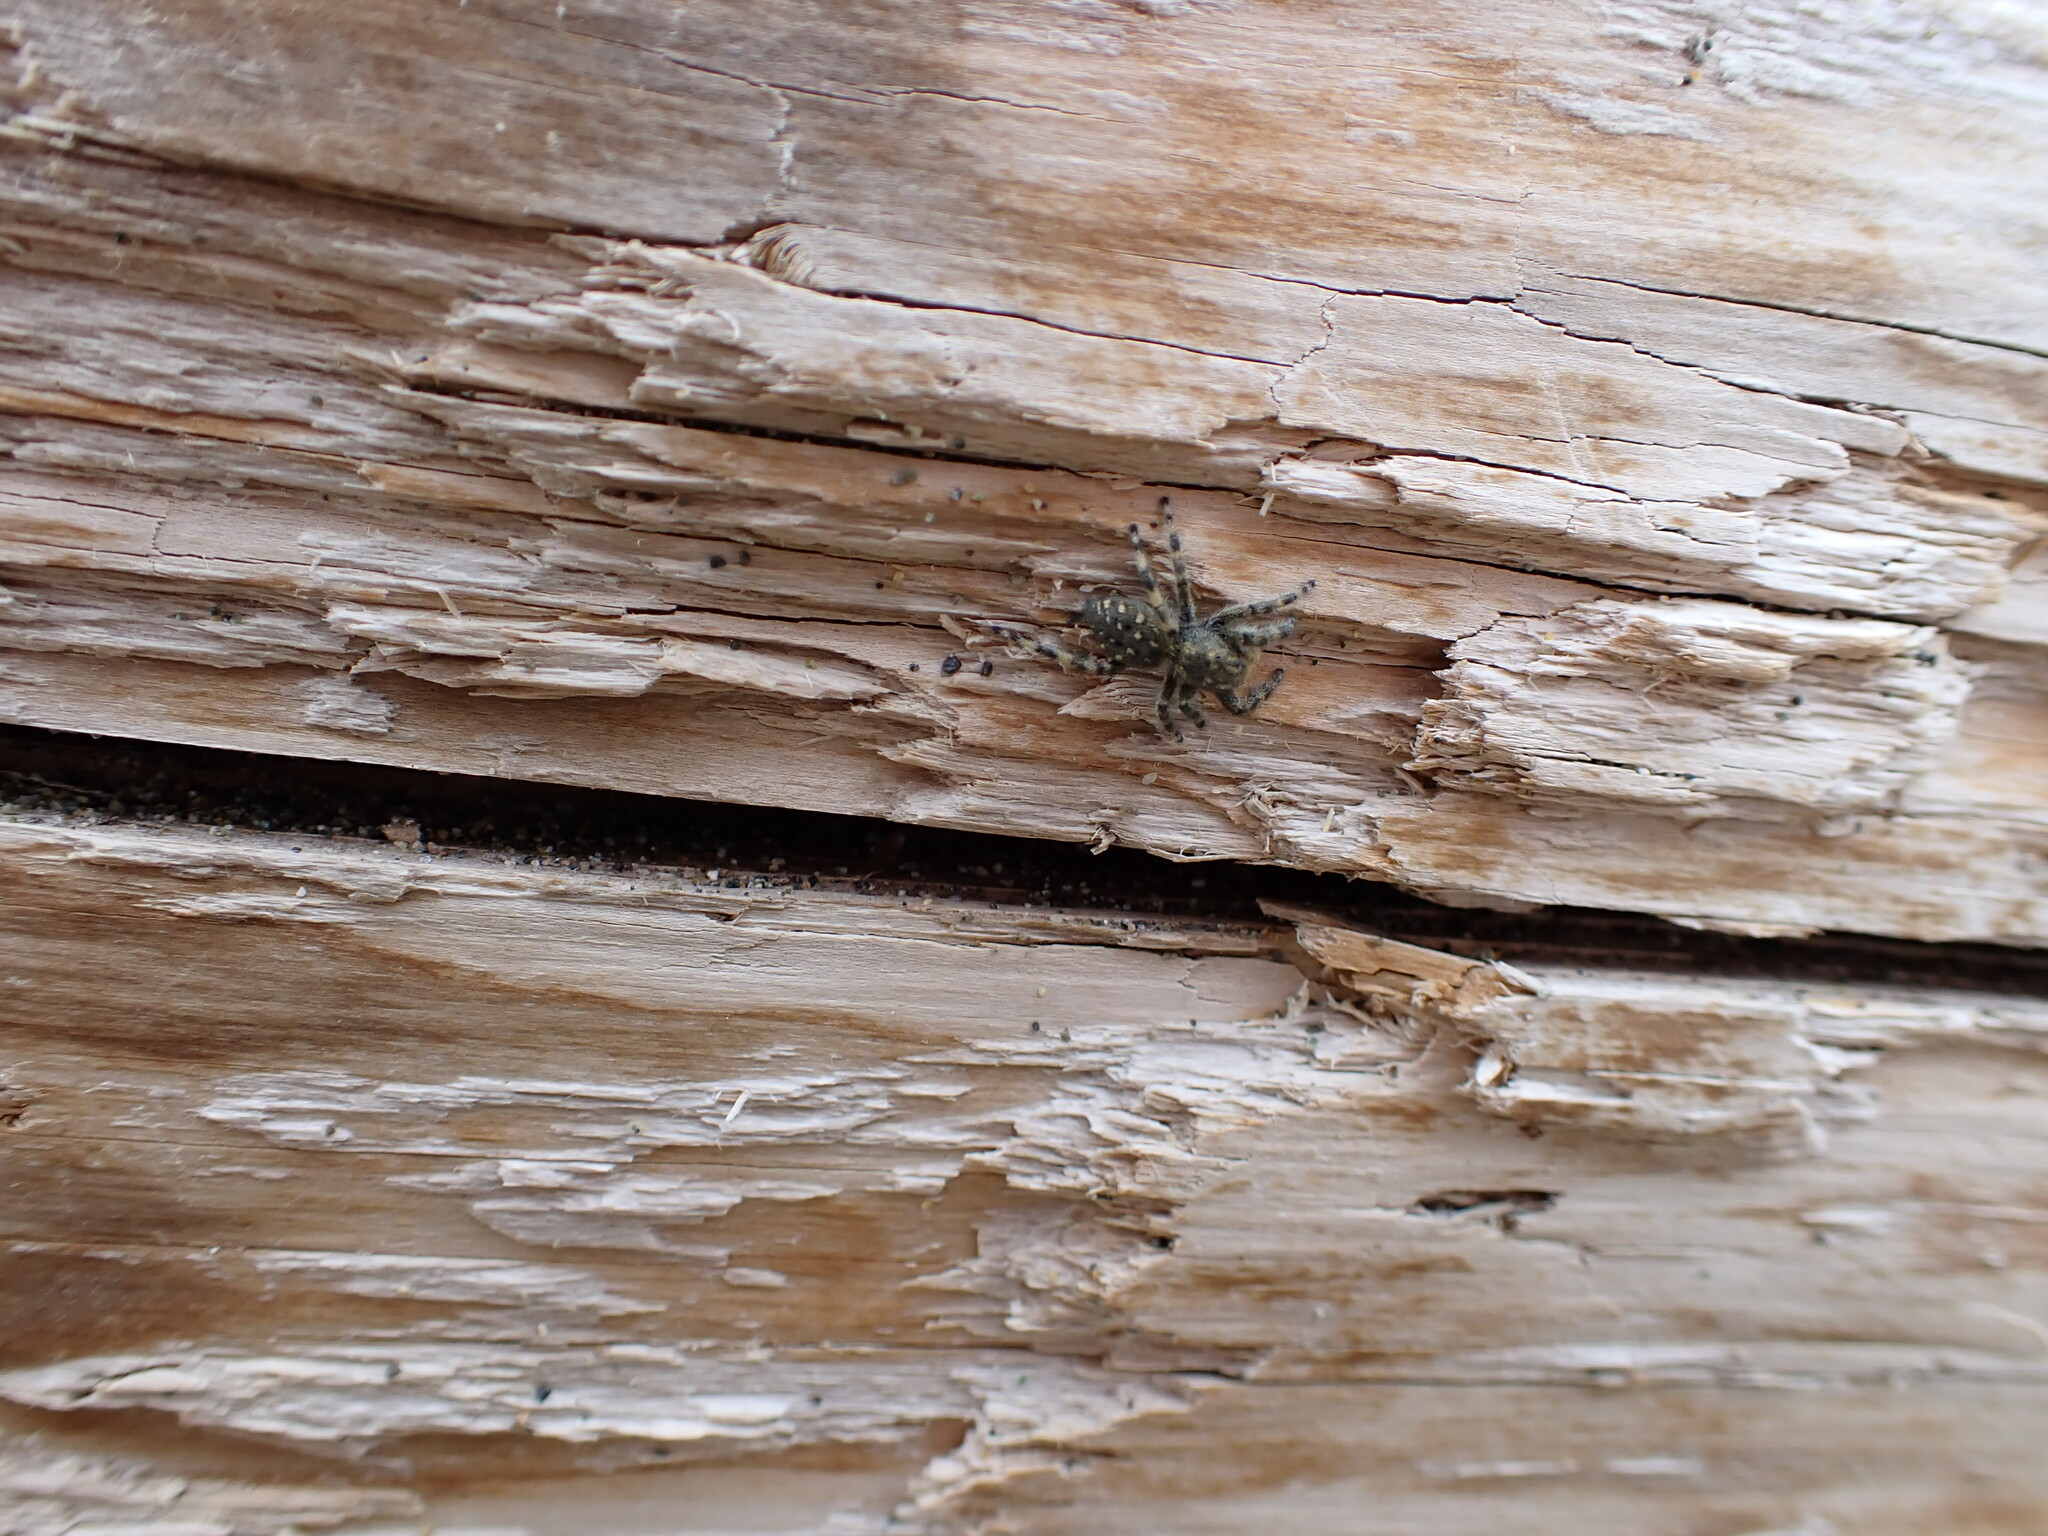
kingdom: Animalia
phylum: Arthropoda
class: Arachnida
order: Araneae
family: Salticidae
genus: Terralonus
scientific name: Terralonus californicus
